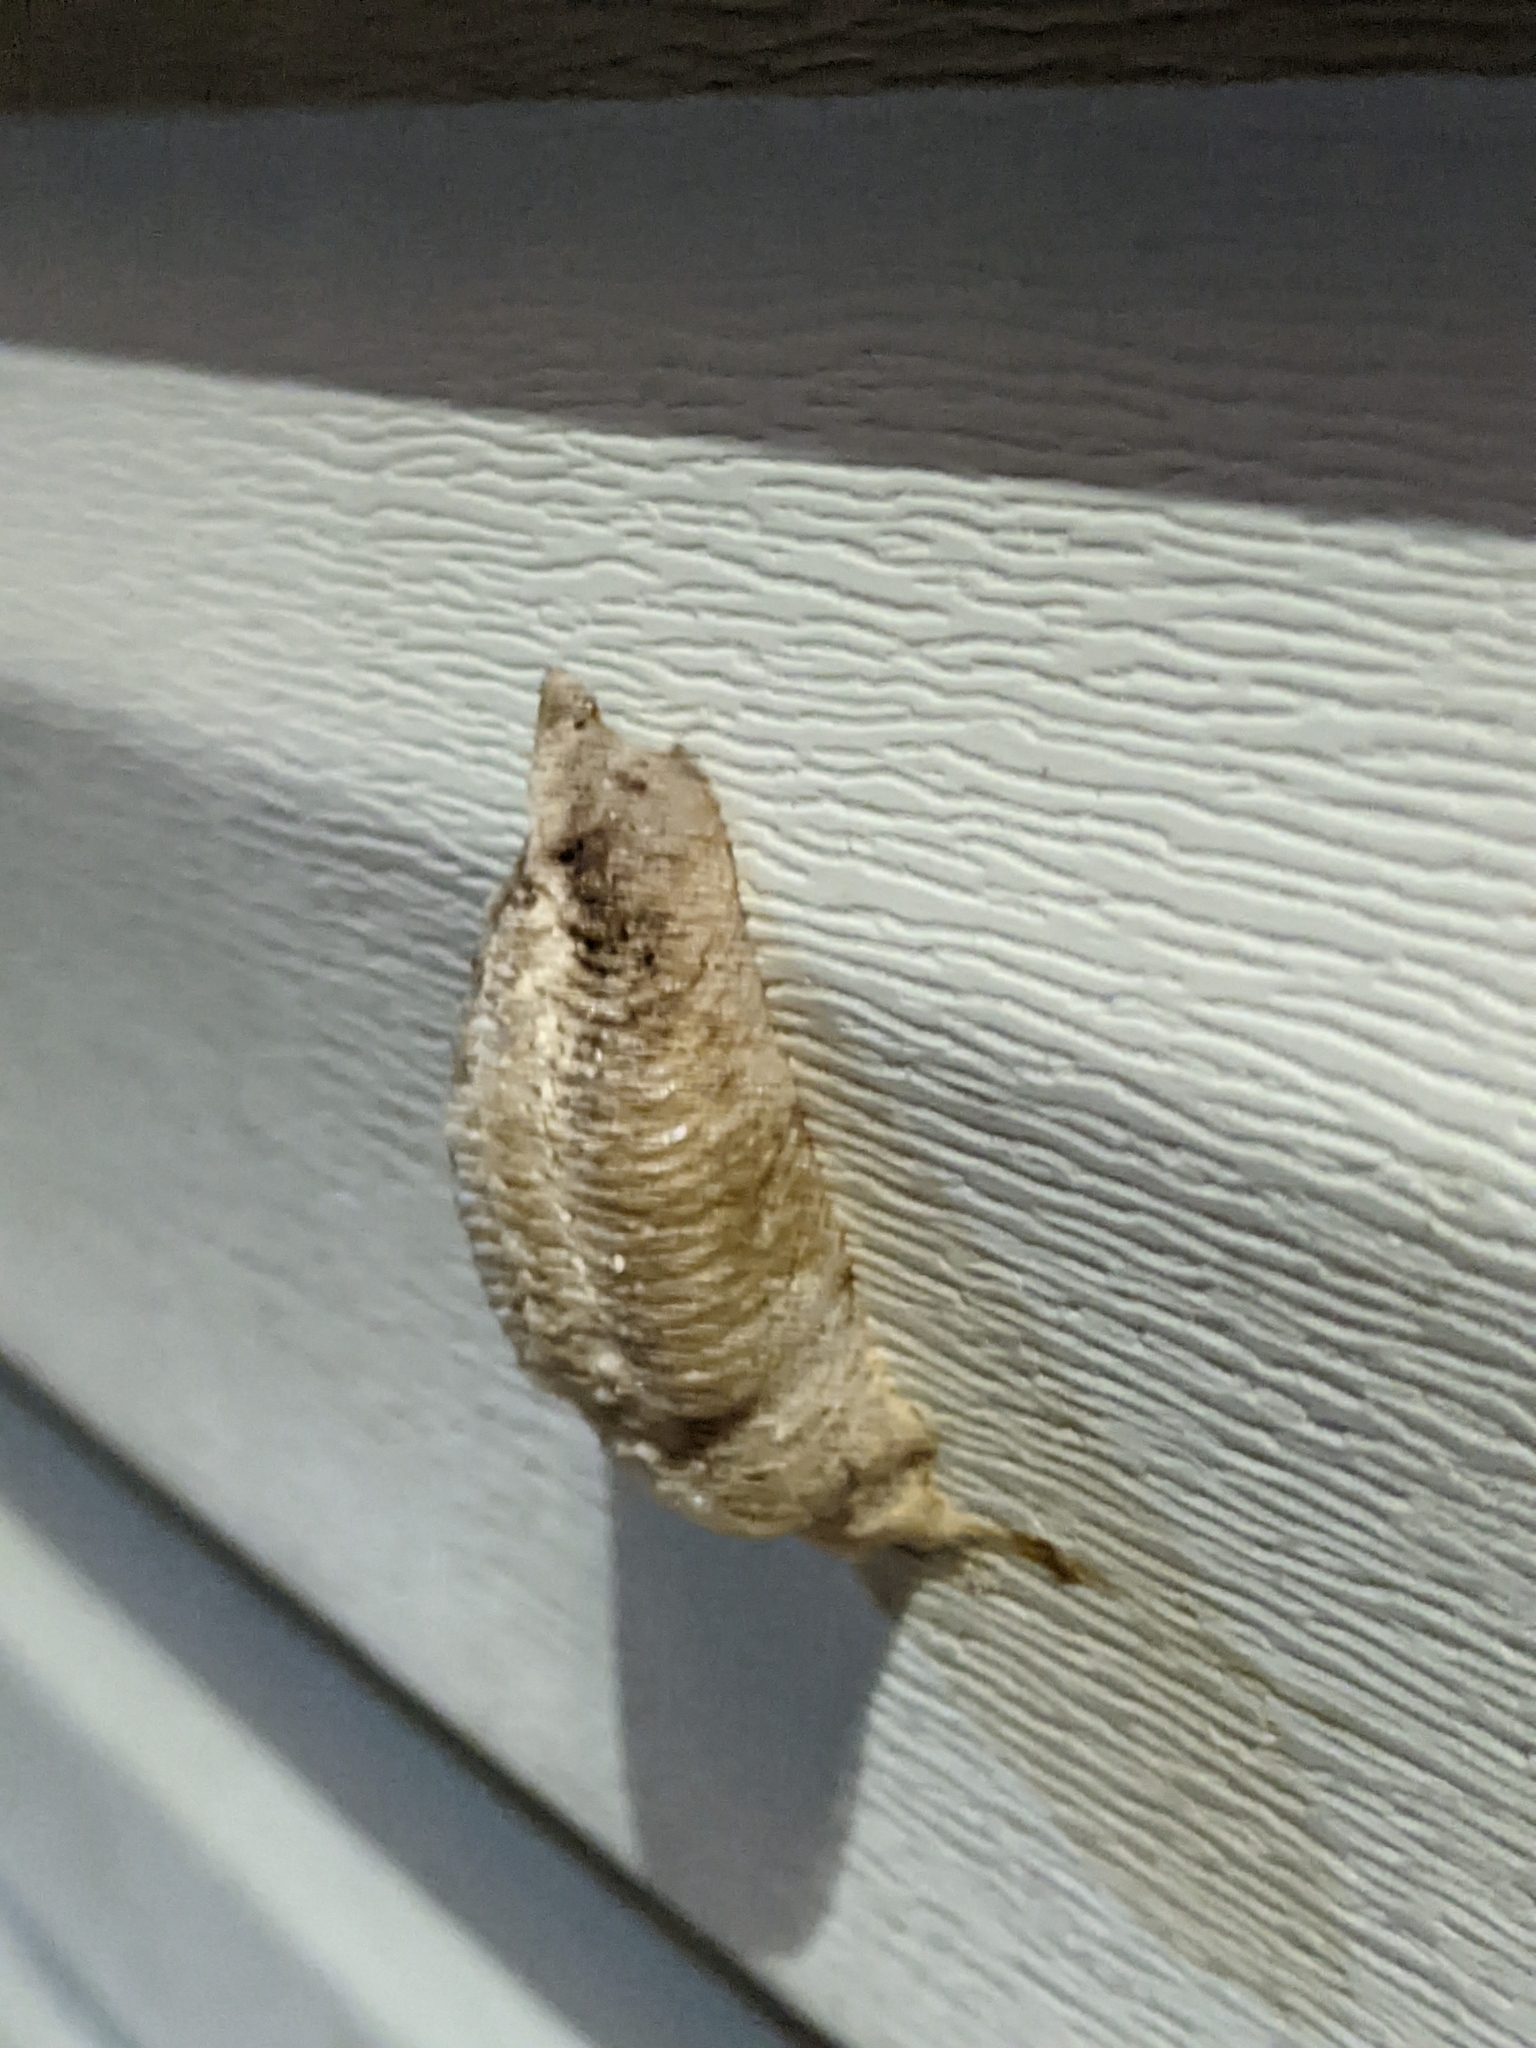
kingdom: Animalia
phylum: Arthropoda
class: Insecta
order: Mantodea
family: Mantidae
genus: Mantis
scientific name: Mantis religiosa
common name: Praying mantis
